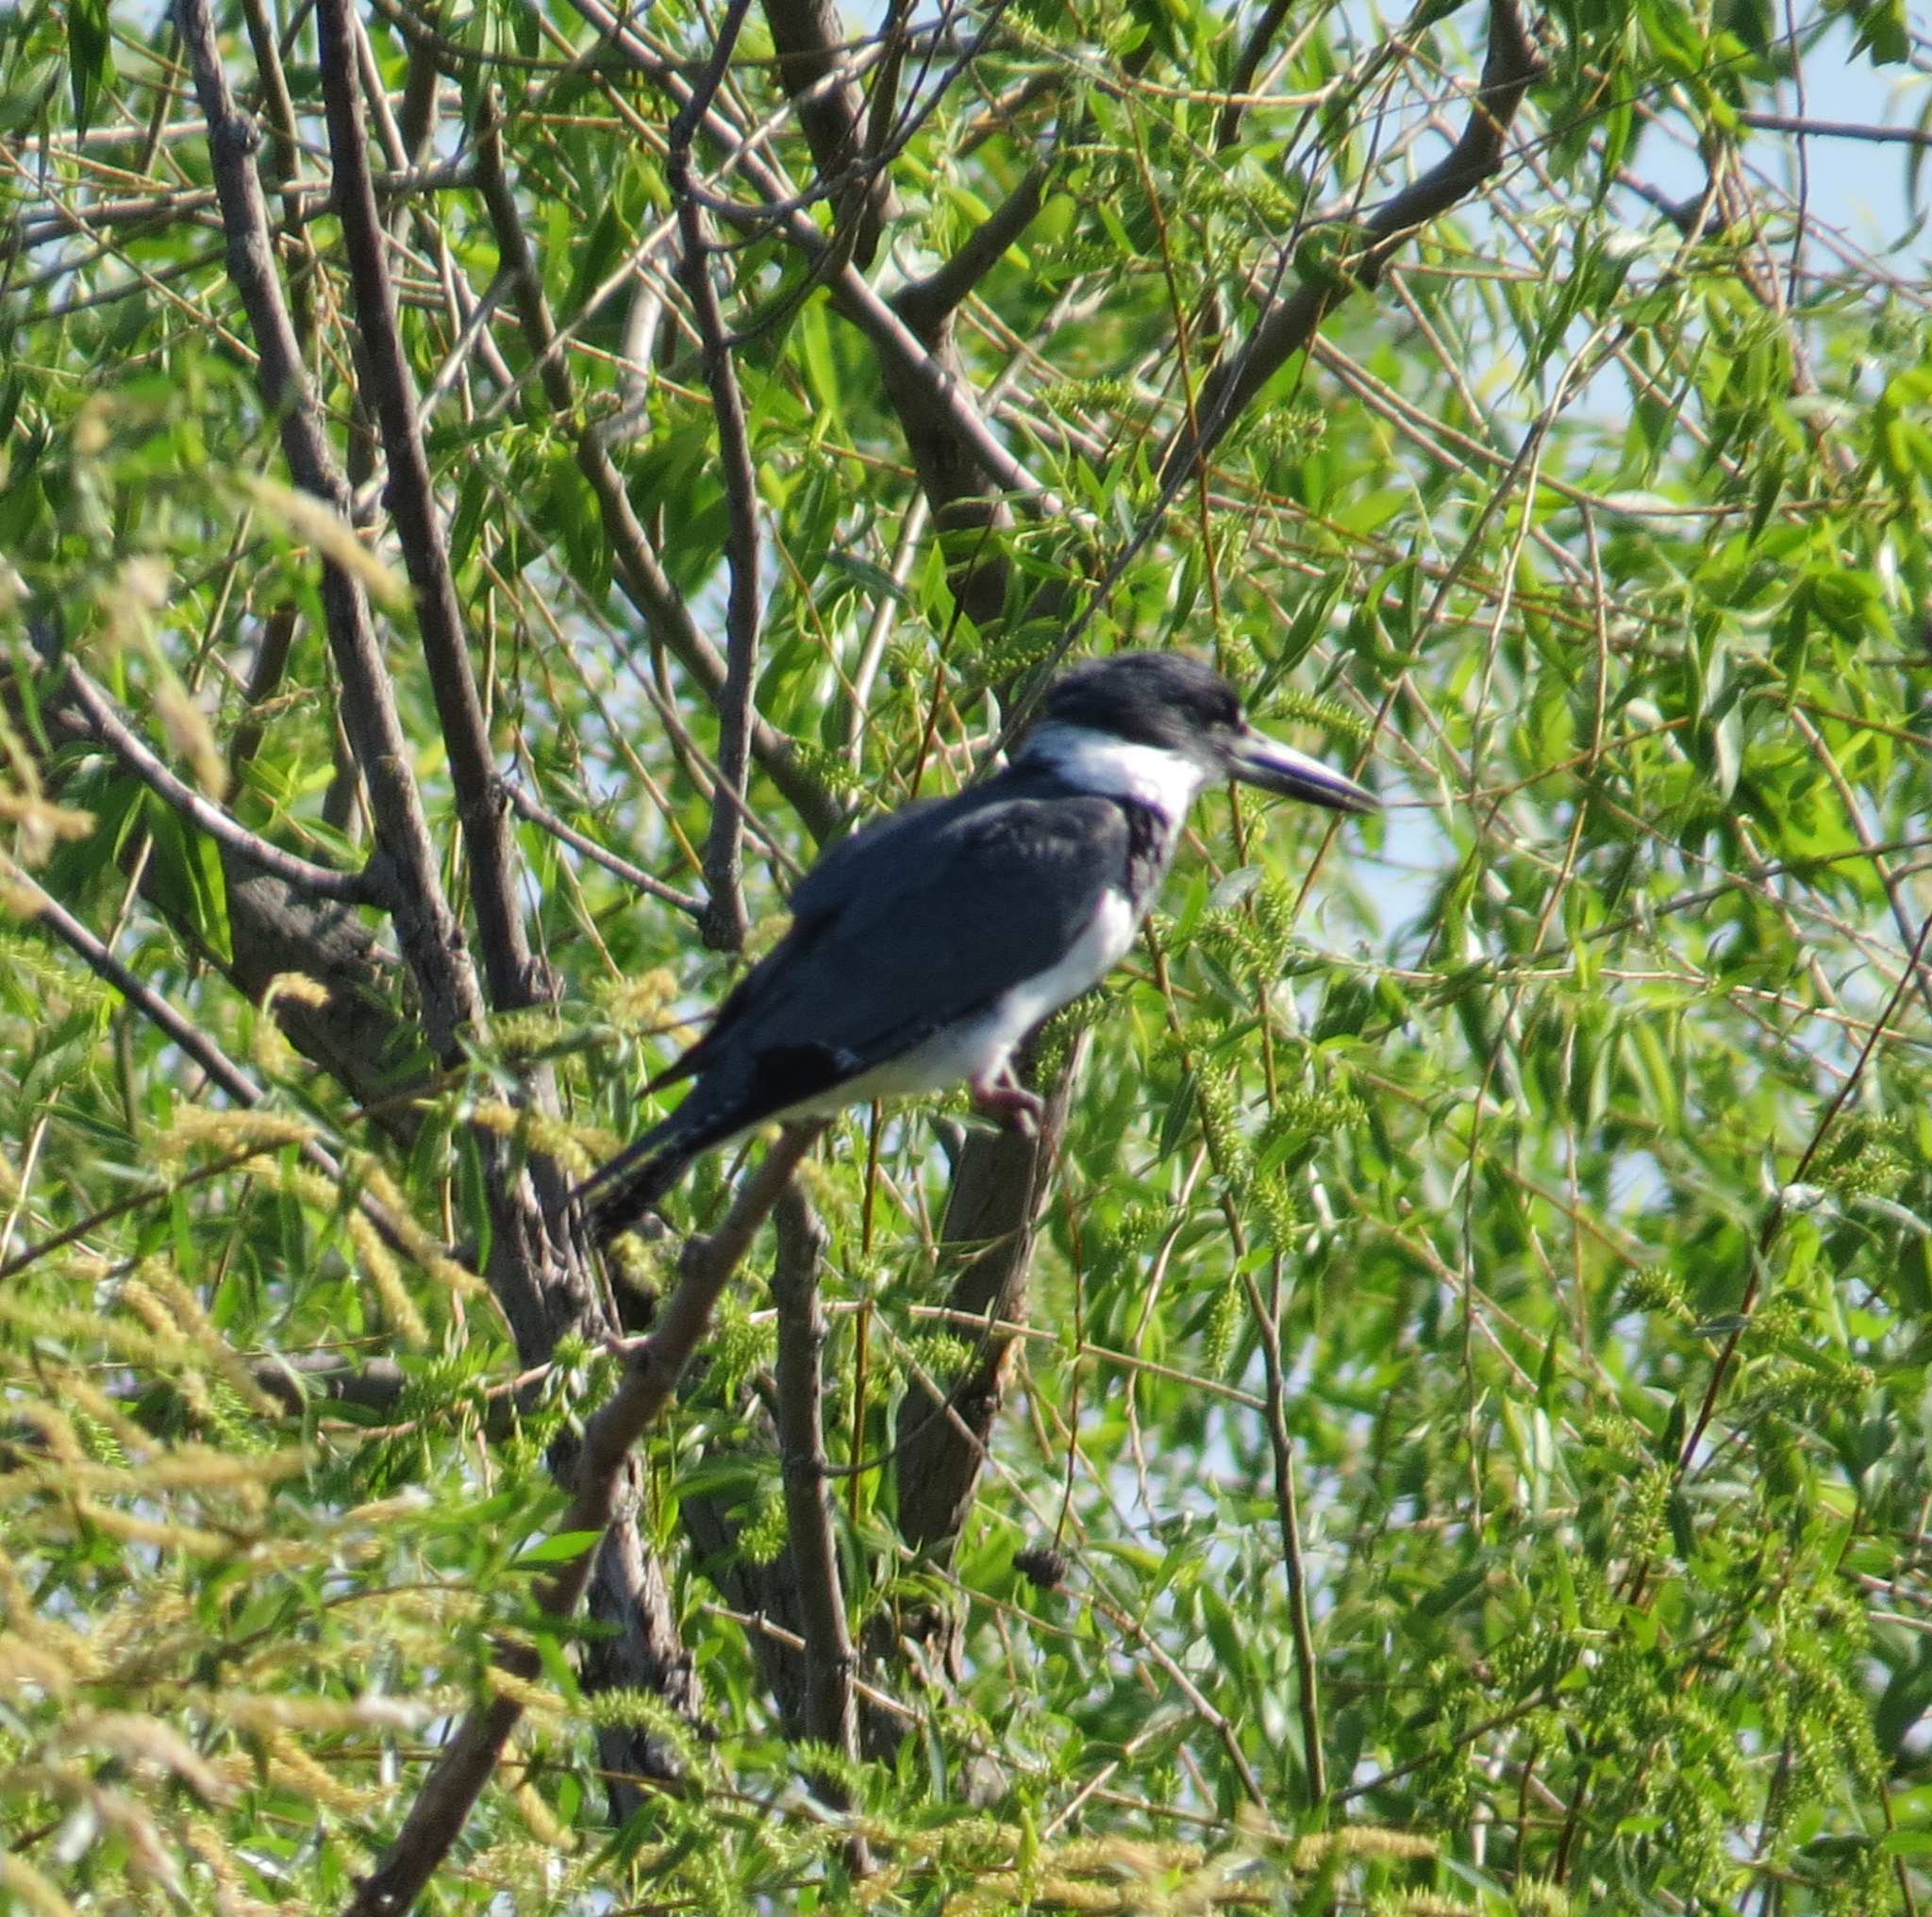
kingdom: Animalia
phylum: Chordata
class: Aves
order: Coraciiformes
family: Alcedinidae
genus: Megaceryle
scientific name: Megaceryle alcyon
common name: Belted kingfisher
